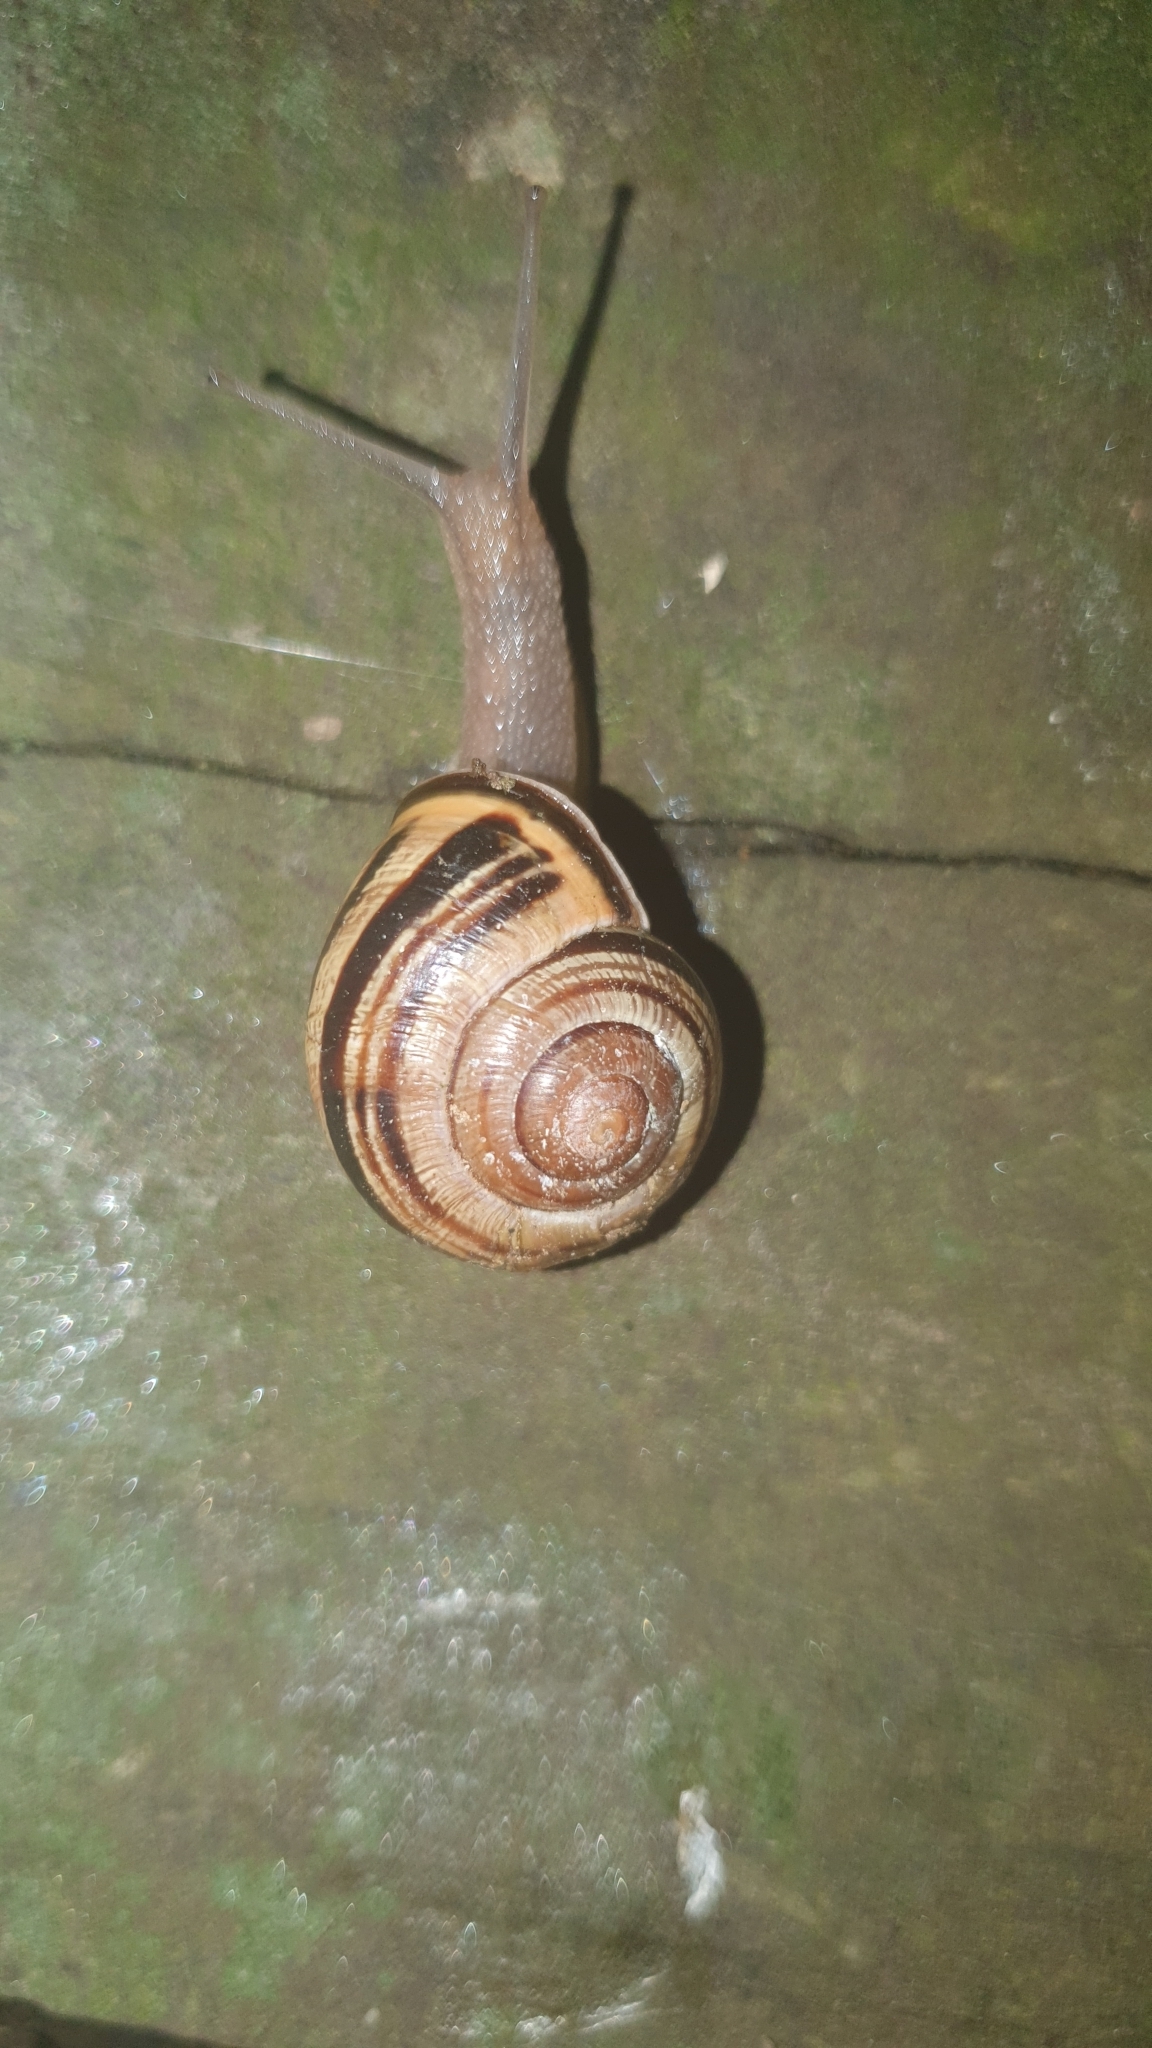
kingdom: Animalia
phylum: Mollusca
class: Gastropoda
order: Stylommatophora
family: Helicidae
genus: Cepaea
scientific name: Cepaea nemoralis
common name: Grovesnail
